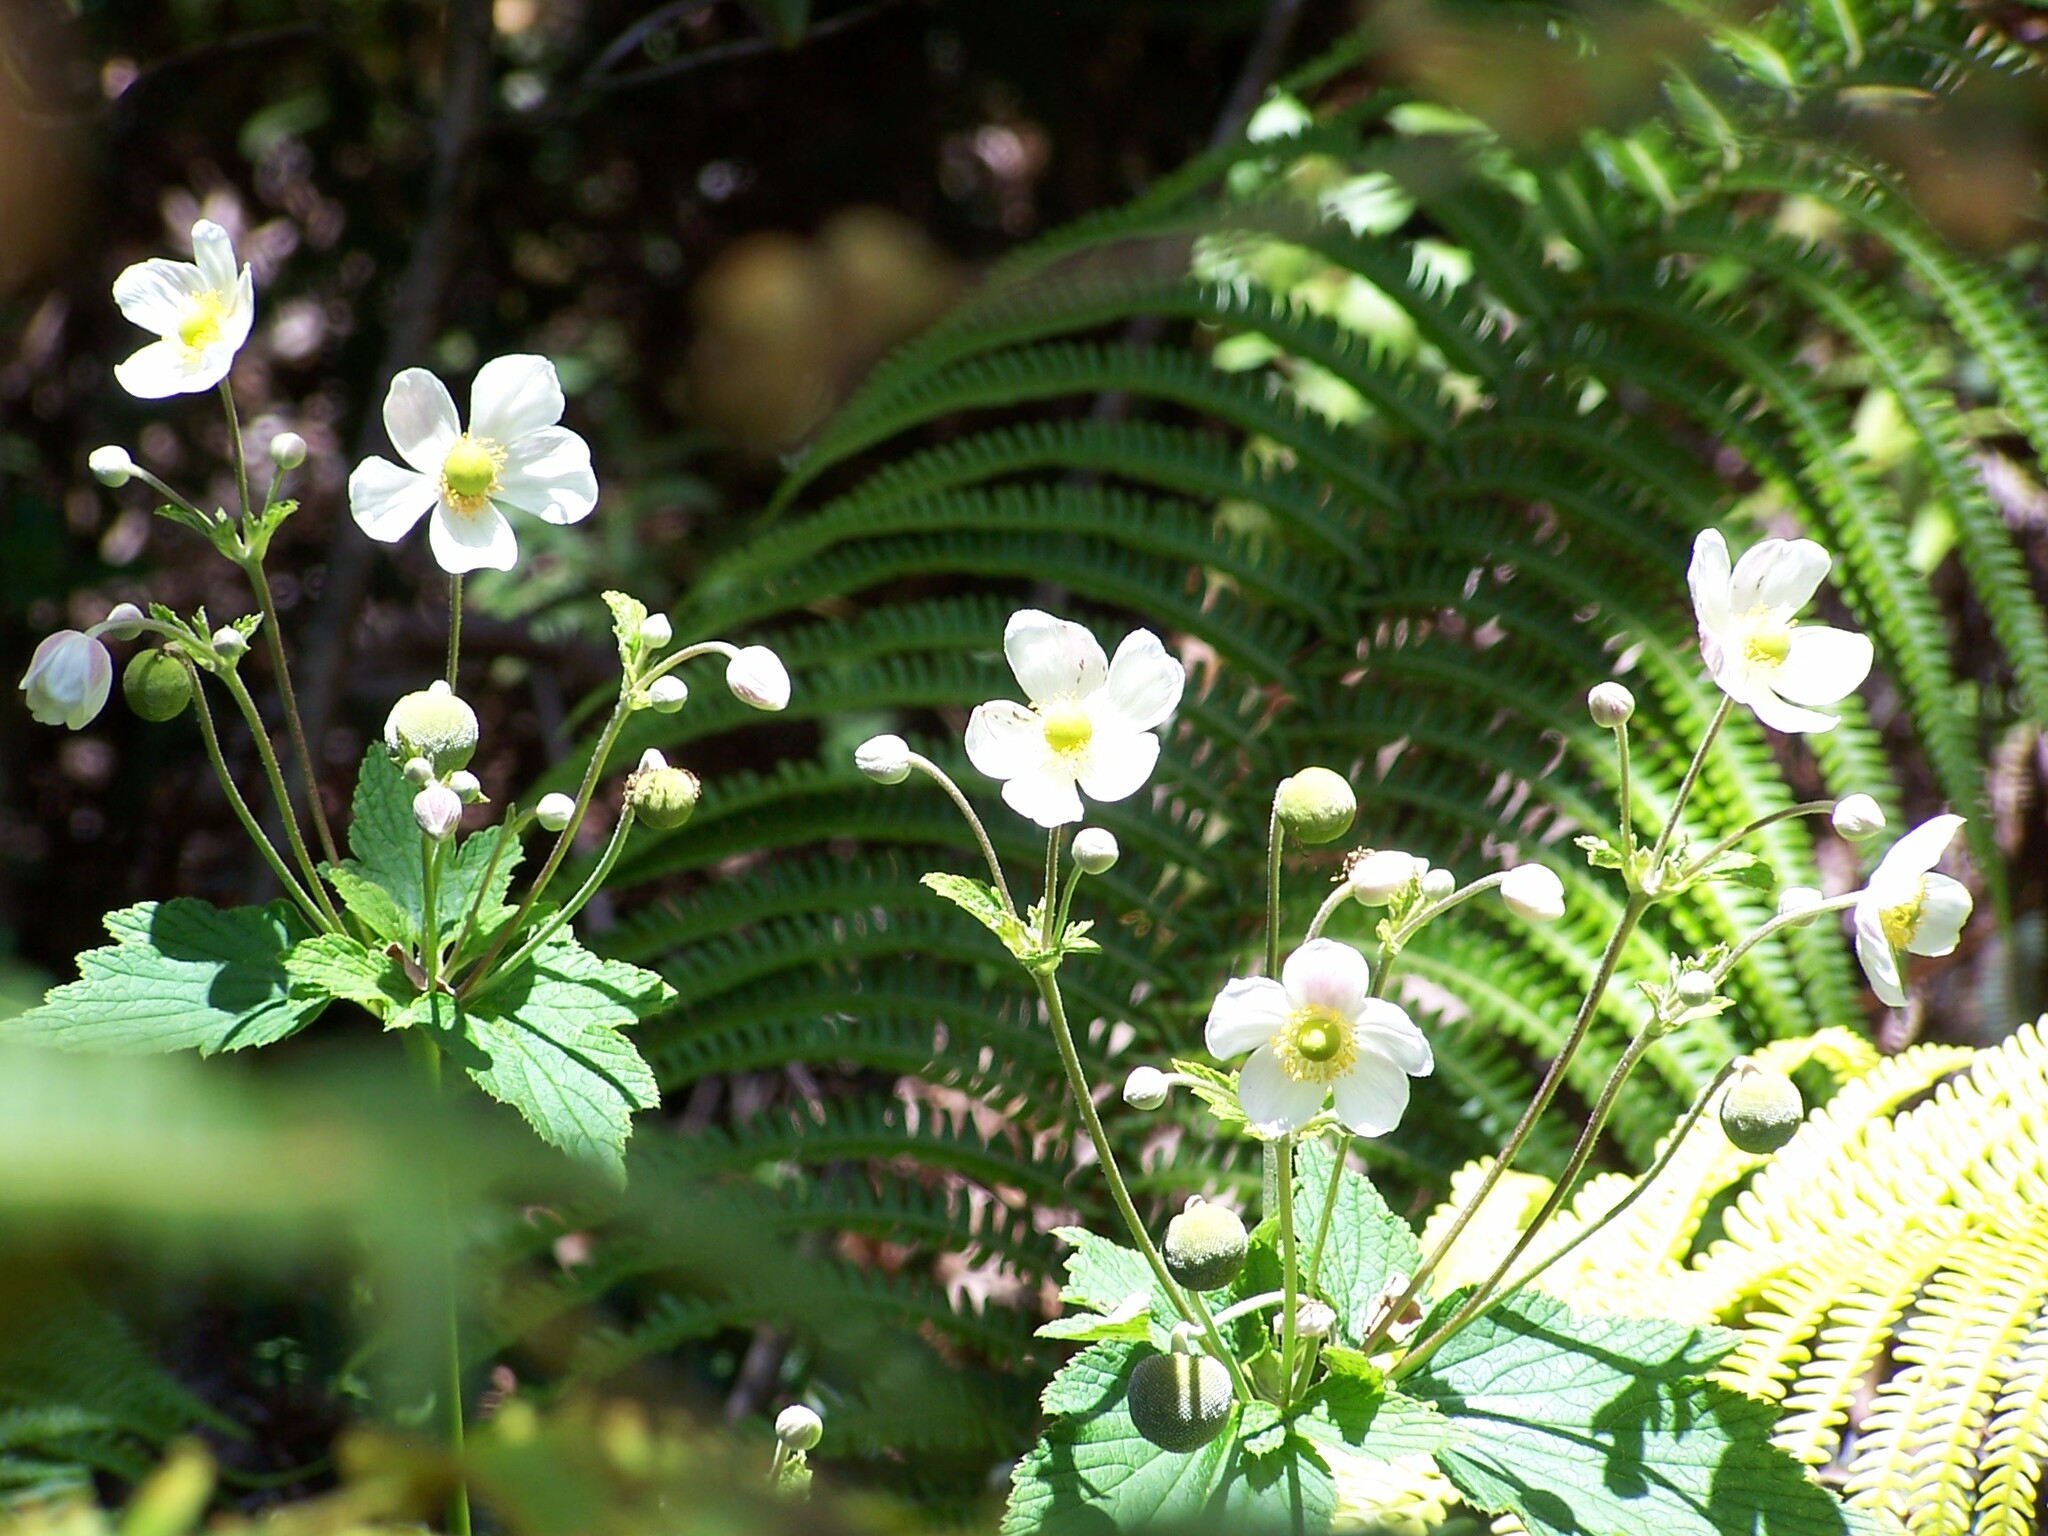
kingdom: Plantae
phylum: Tracheophyta
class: Magnoliopsida
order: Ranunculales
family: Ranunculaceae
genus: Eriocapitella
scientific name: Eriocapitella japonica
